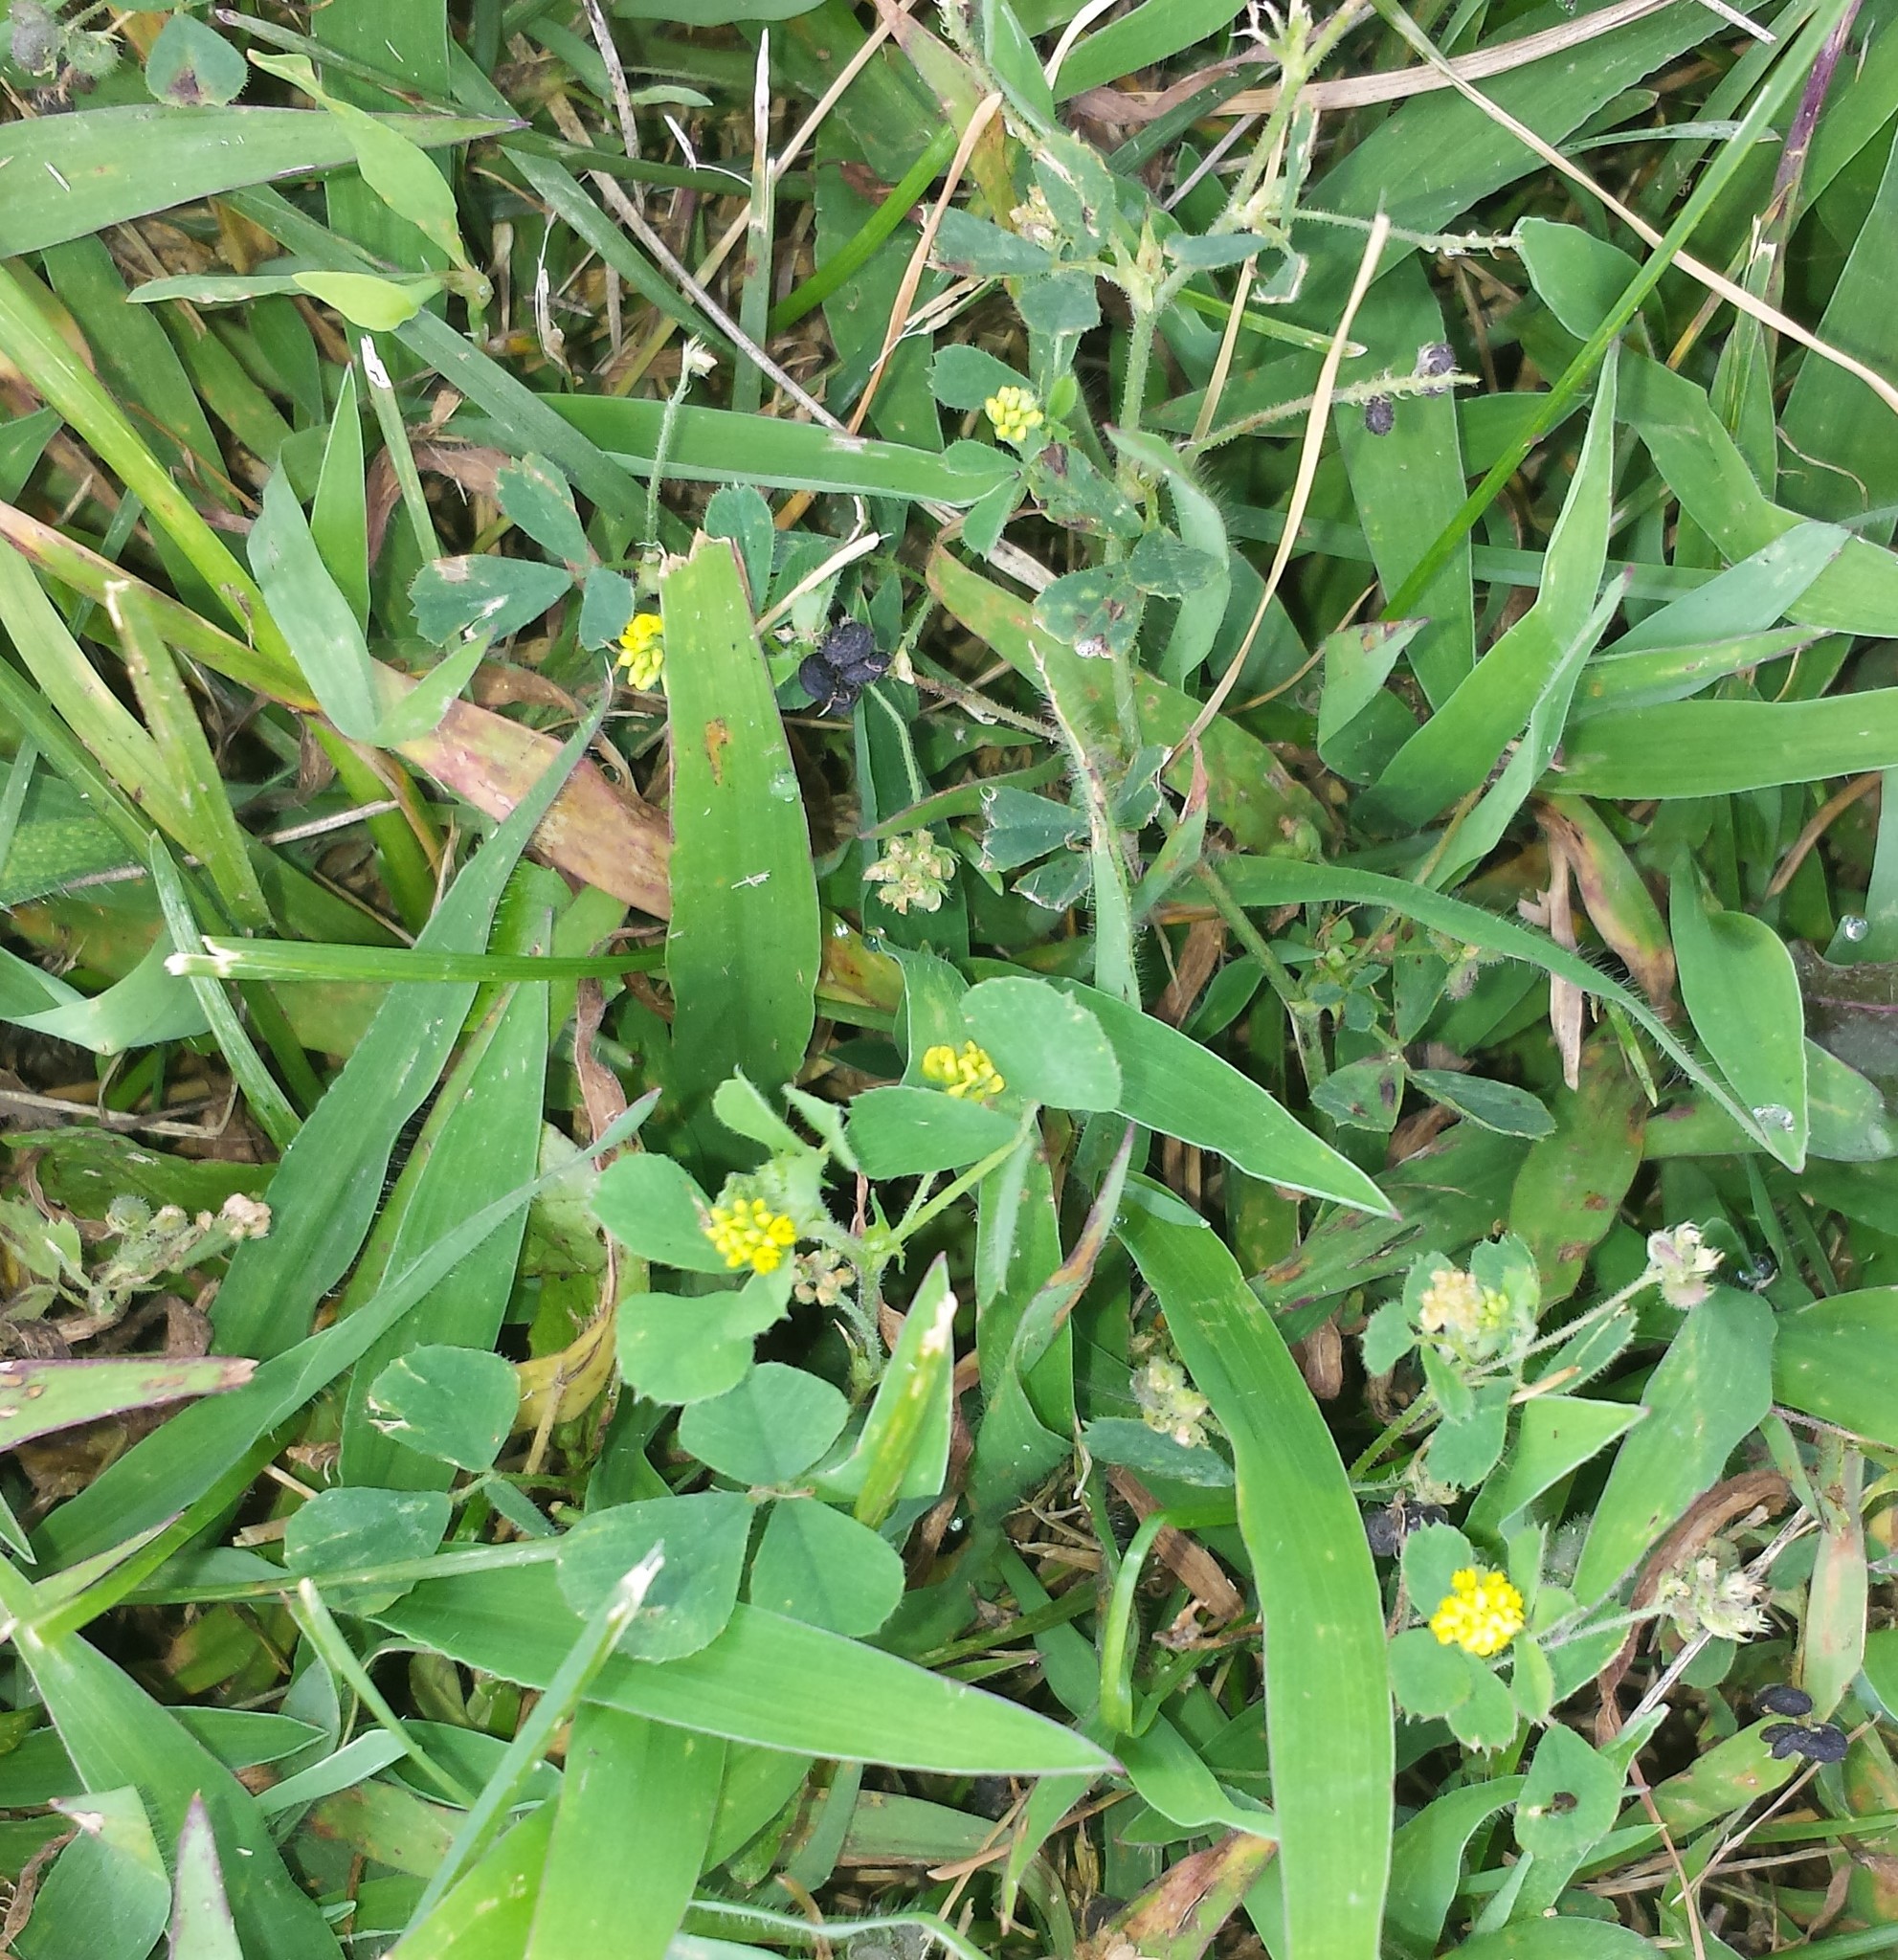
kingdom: Plantae
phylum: Tracheophyta
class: Magnoliopsida
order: Fabales
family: Fabaceae
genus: Medicago
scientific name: Medicago lupulina
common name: Black medick
